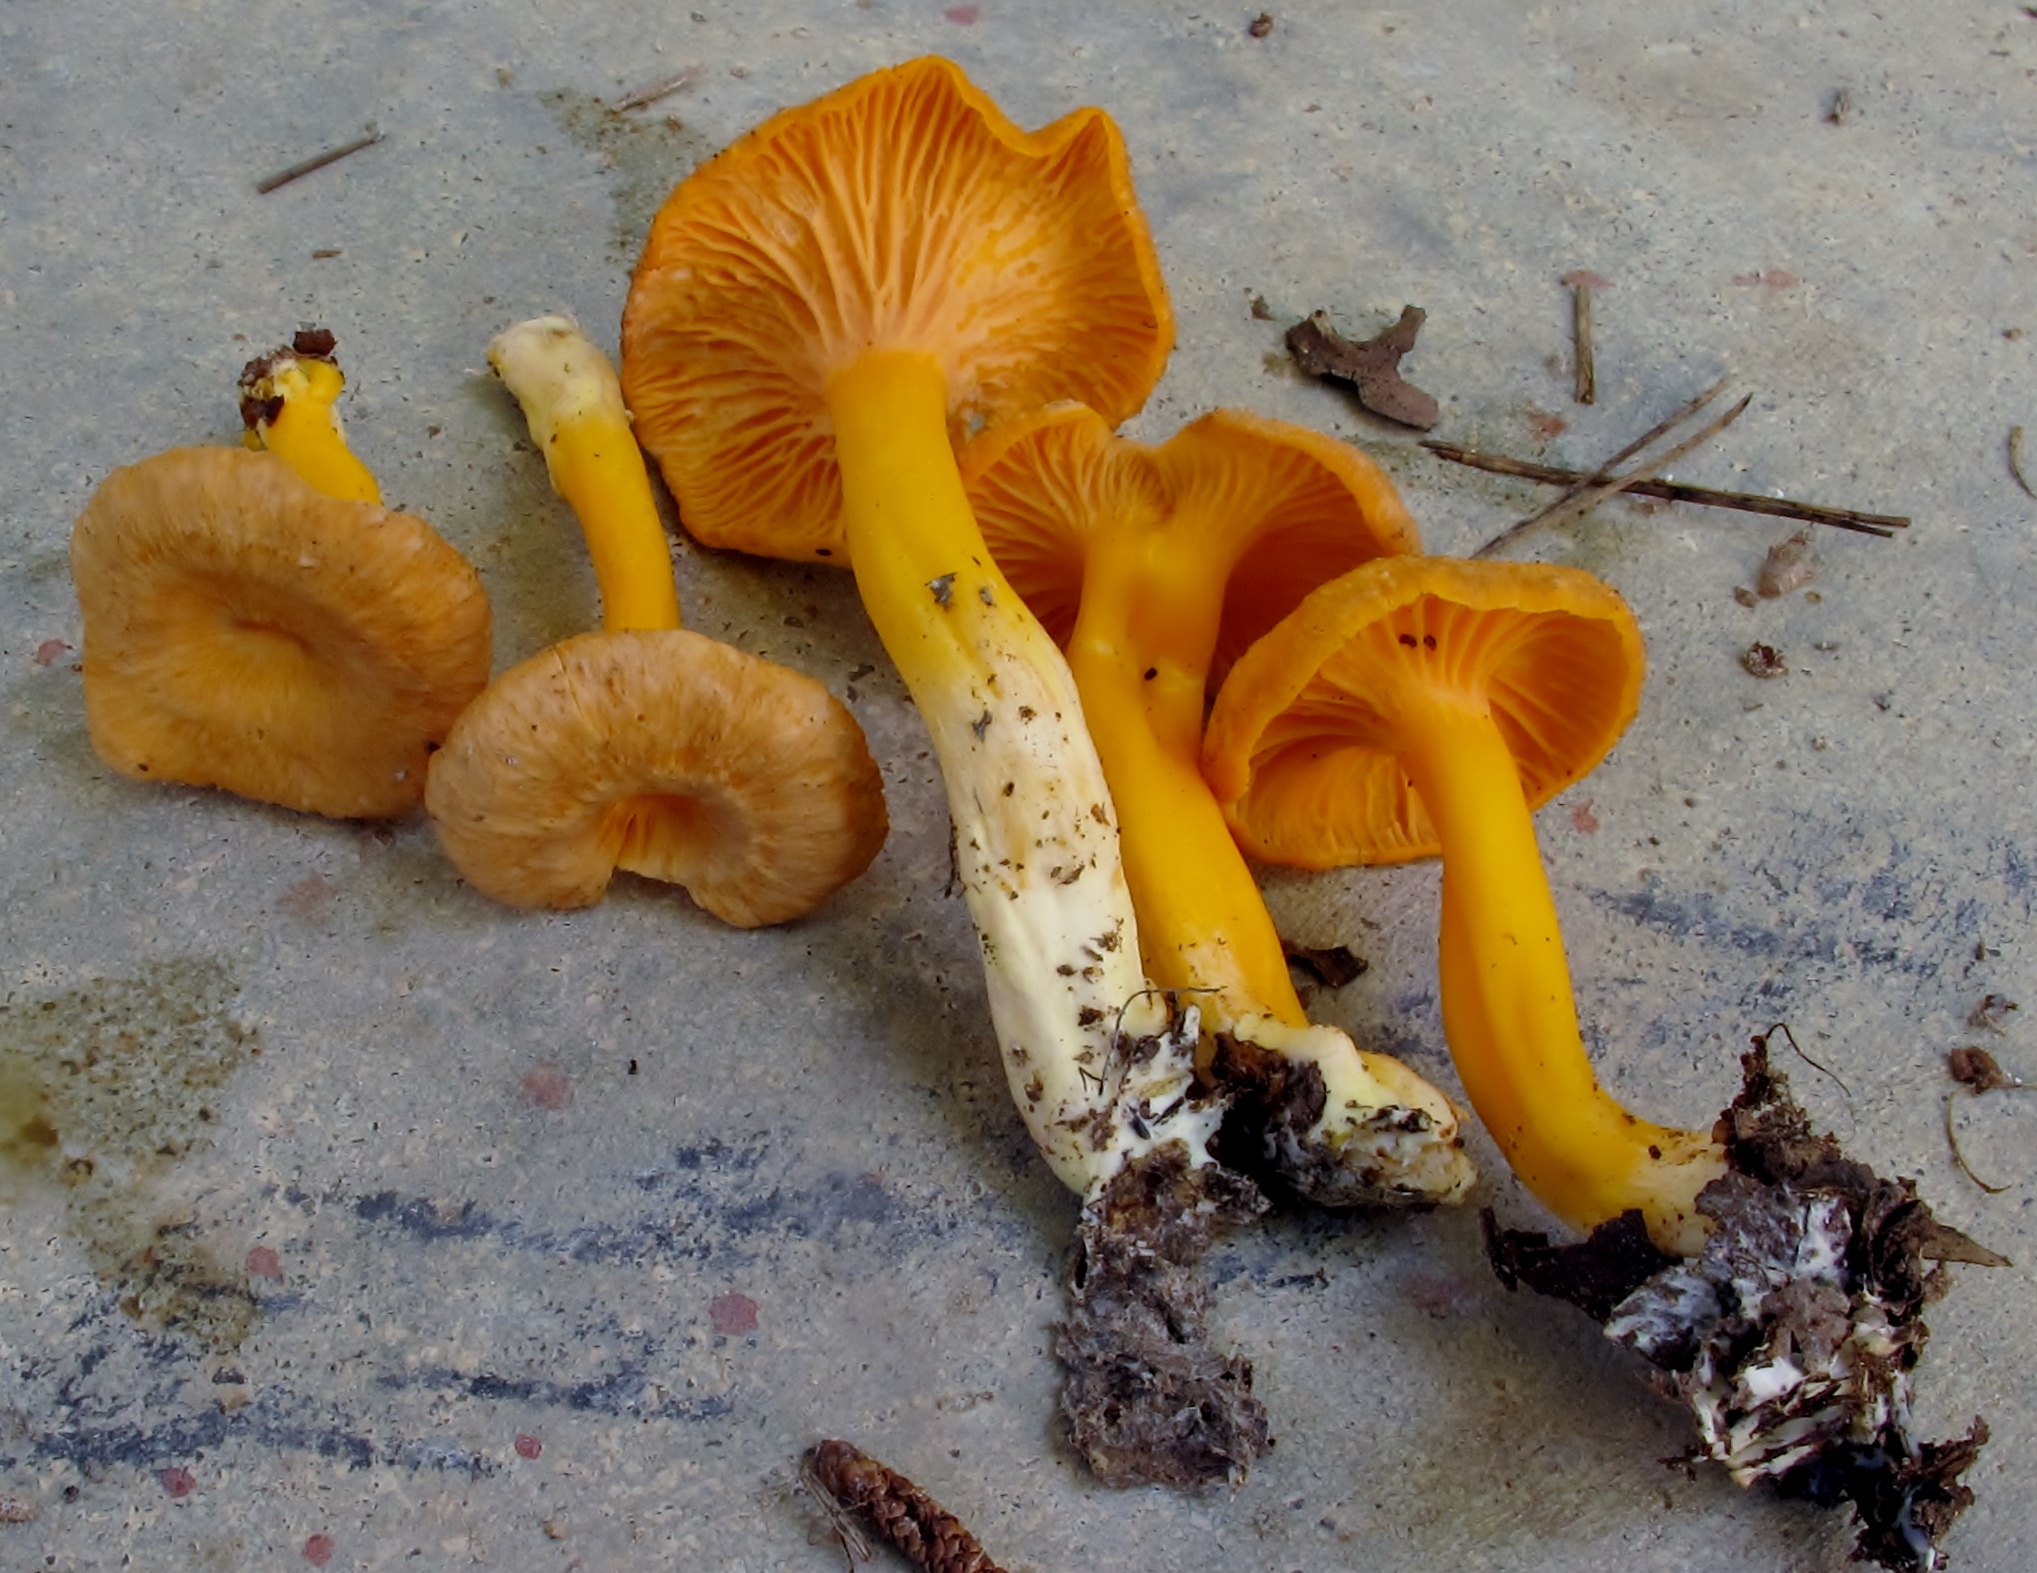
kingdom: Fungi
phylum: Basidiomycota
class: Agaricomycetes
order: Cantharellales
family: Hydnaceae
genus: Craterellus
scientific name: Craterellus ignicolor
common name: Flame chanterelle
